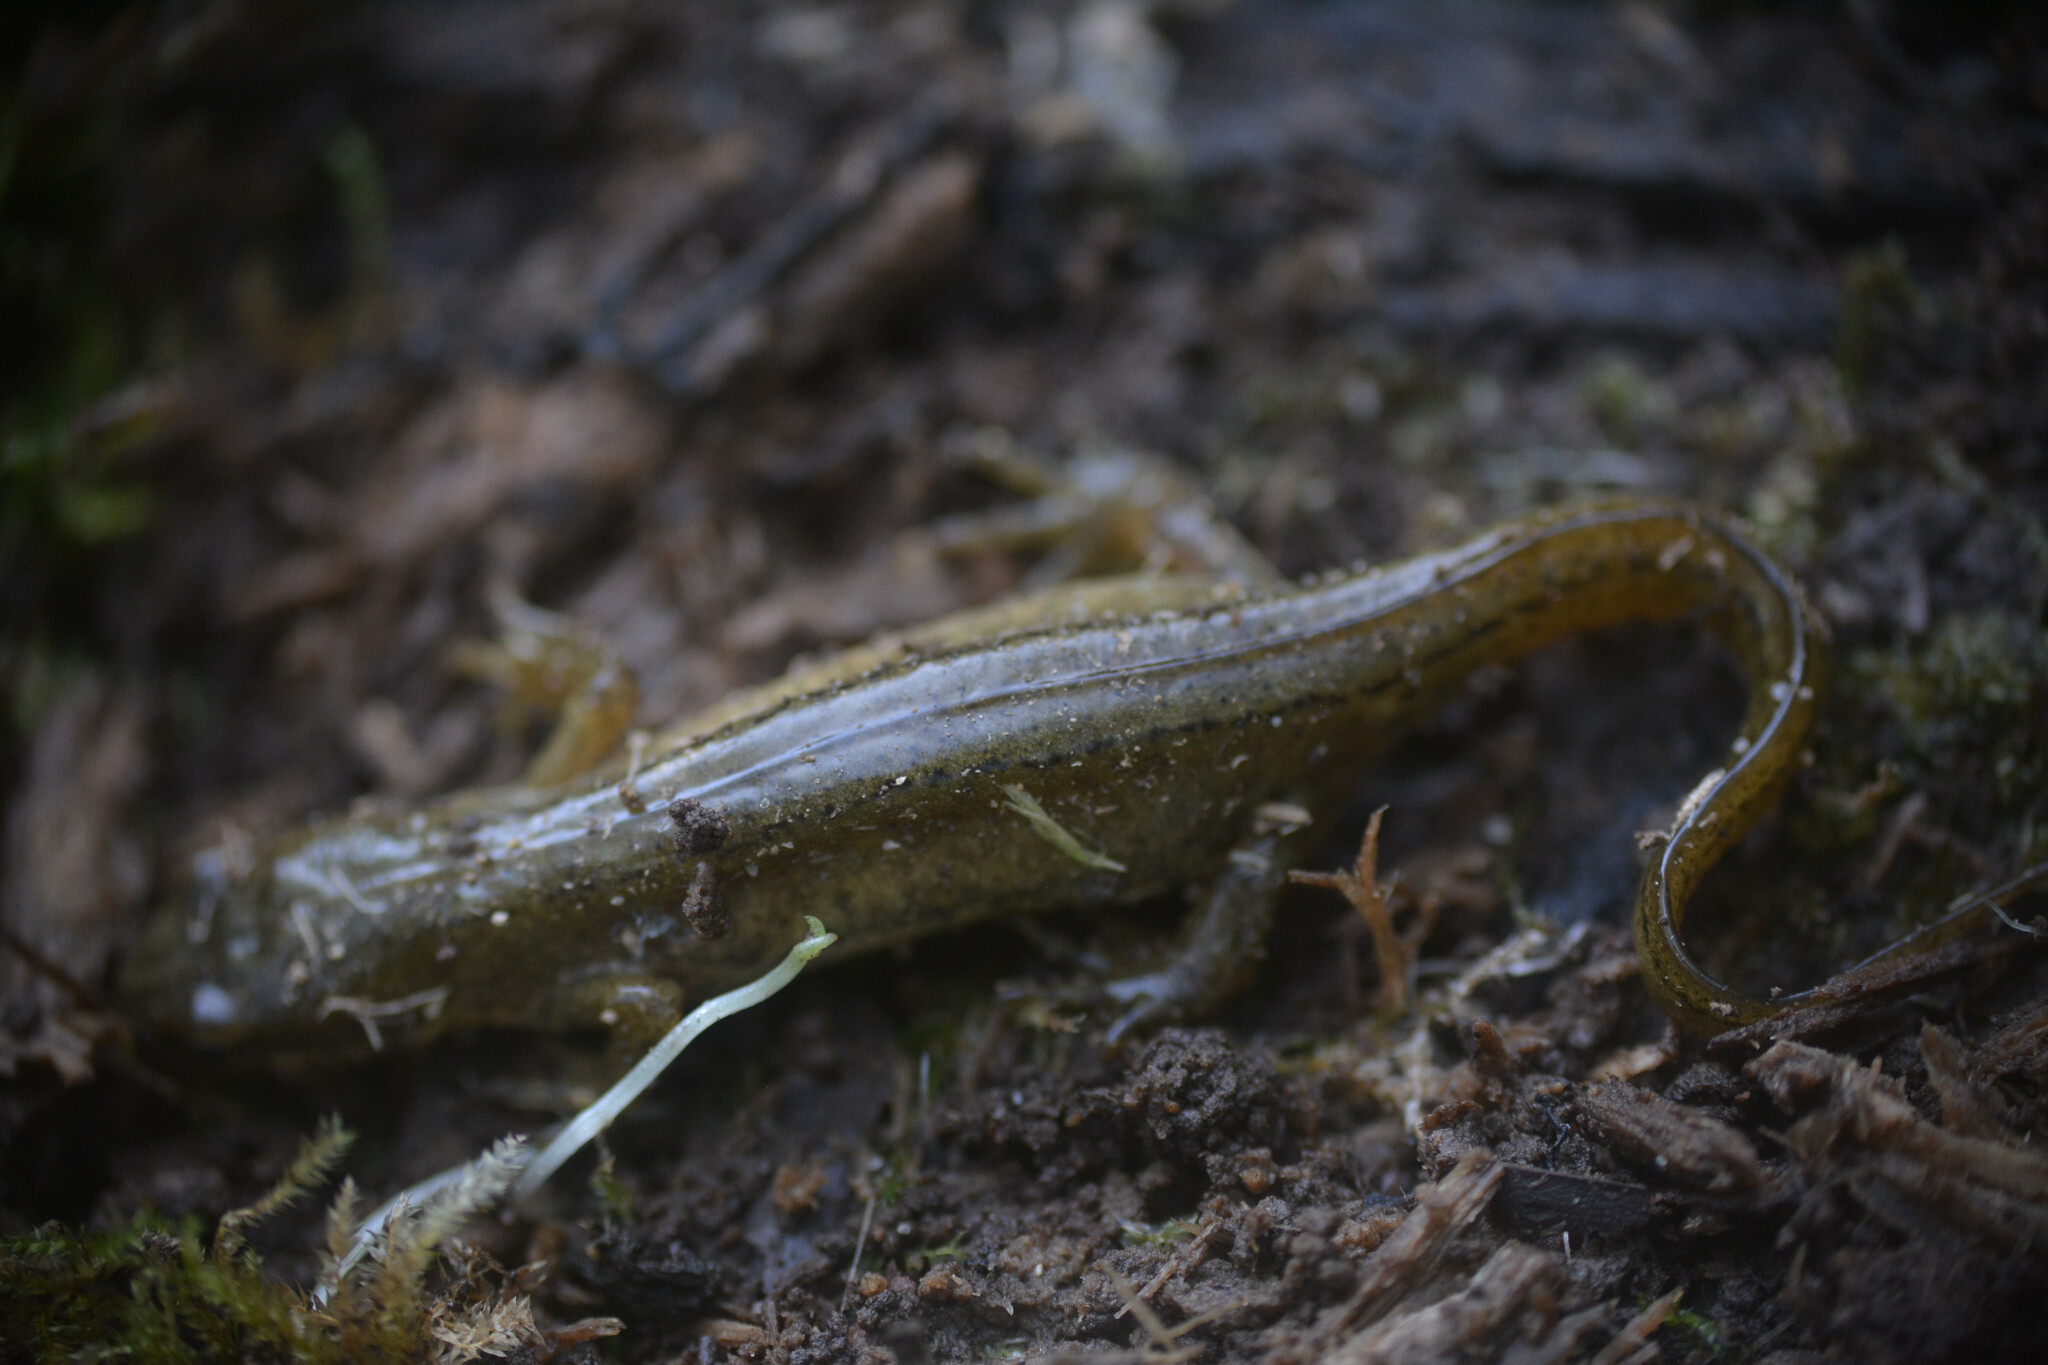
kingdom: Animalia
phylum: Chordata
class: Amphibia
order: Caudata
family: Salamandridae
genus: Lissotriton
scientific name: Lissotriton vulgaris
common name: Smooth newt
